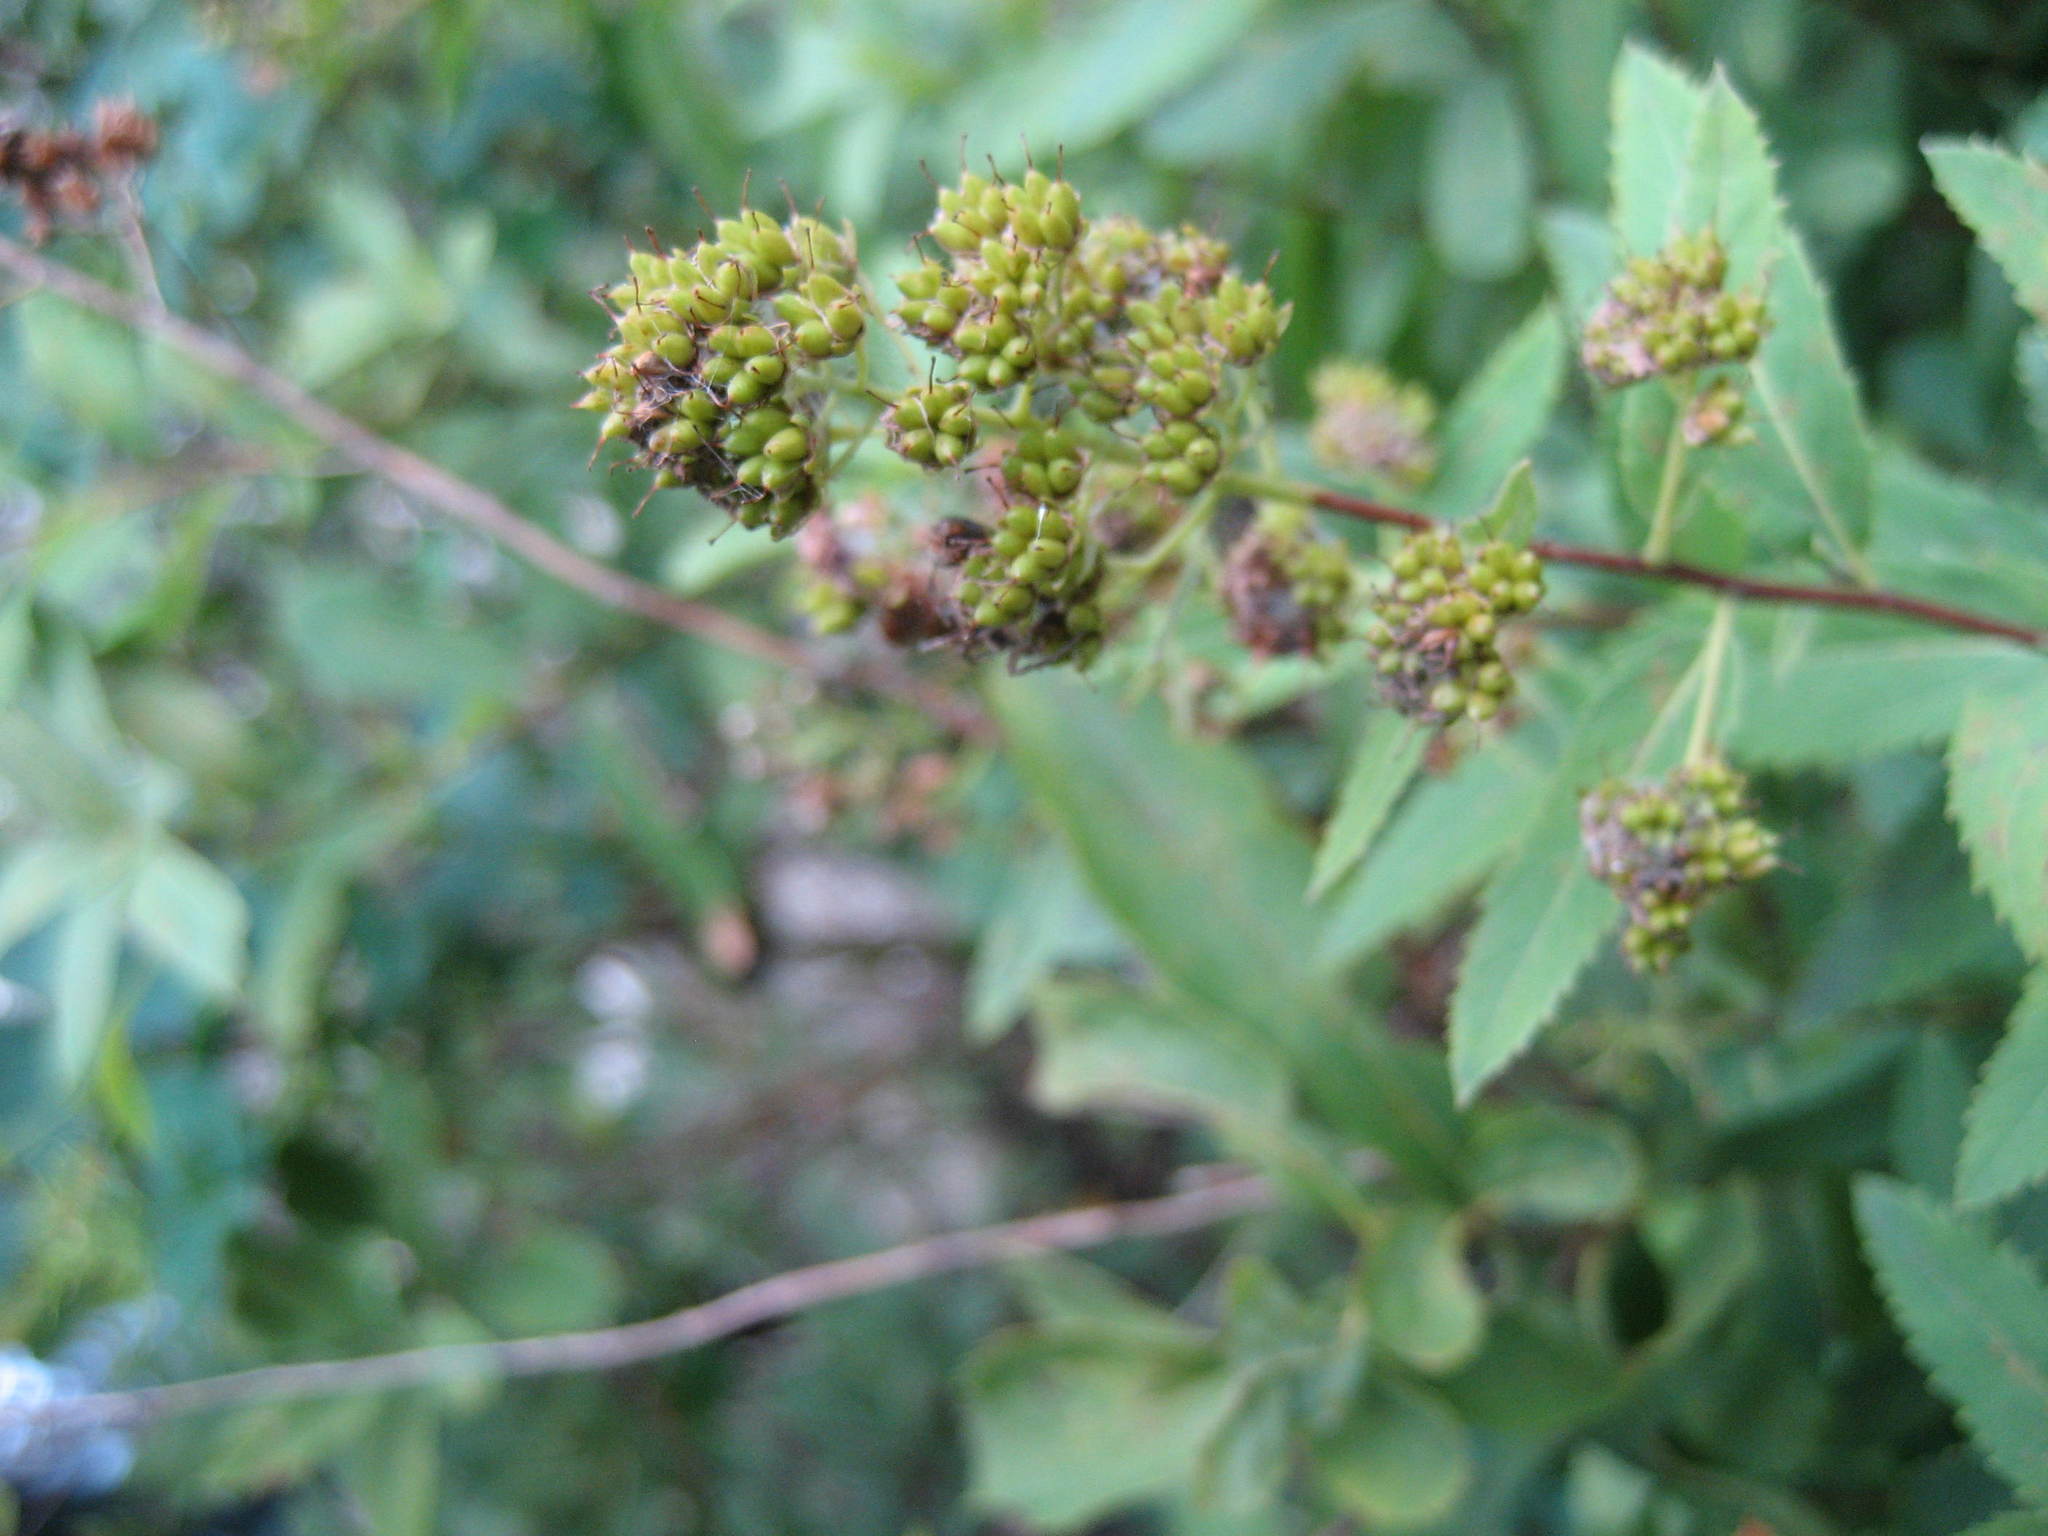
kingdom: Plantae
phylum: Tracheophyta
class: Magnoliopsida
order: Rosales
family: Rosaceae
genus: Spiraea
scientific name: Spiraea alba
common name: Pale bridewort
